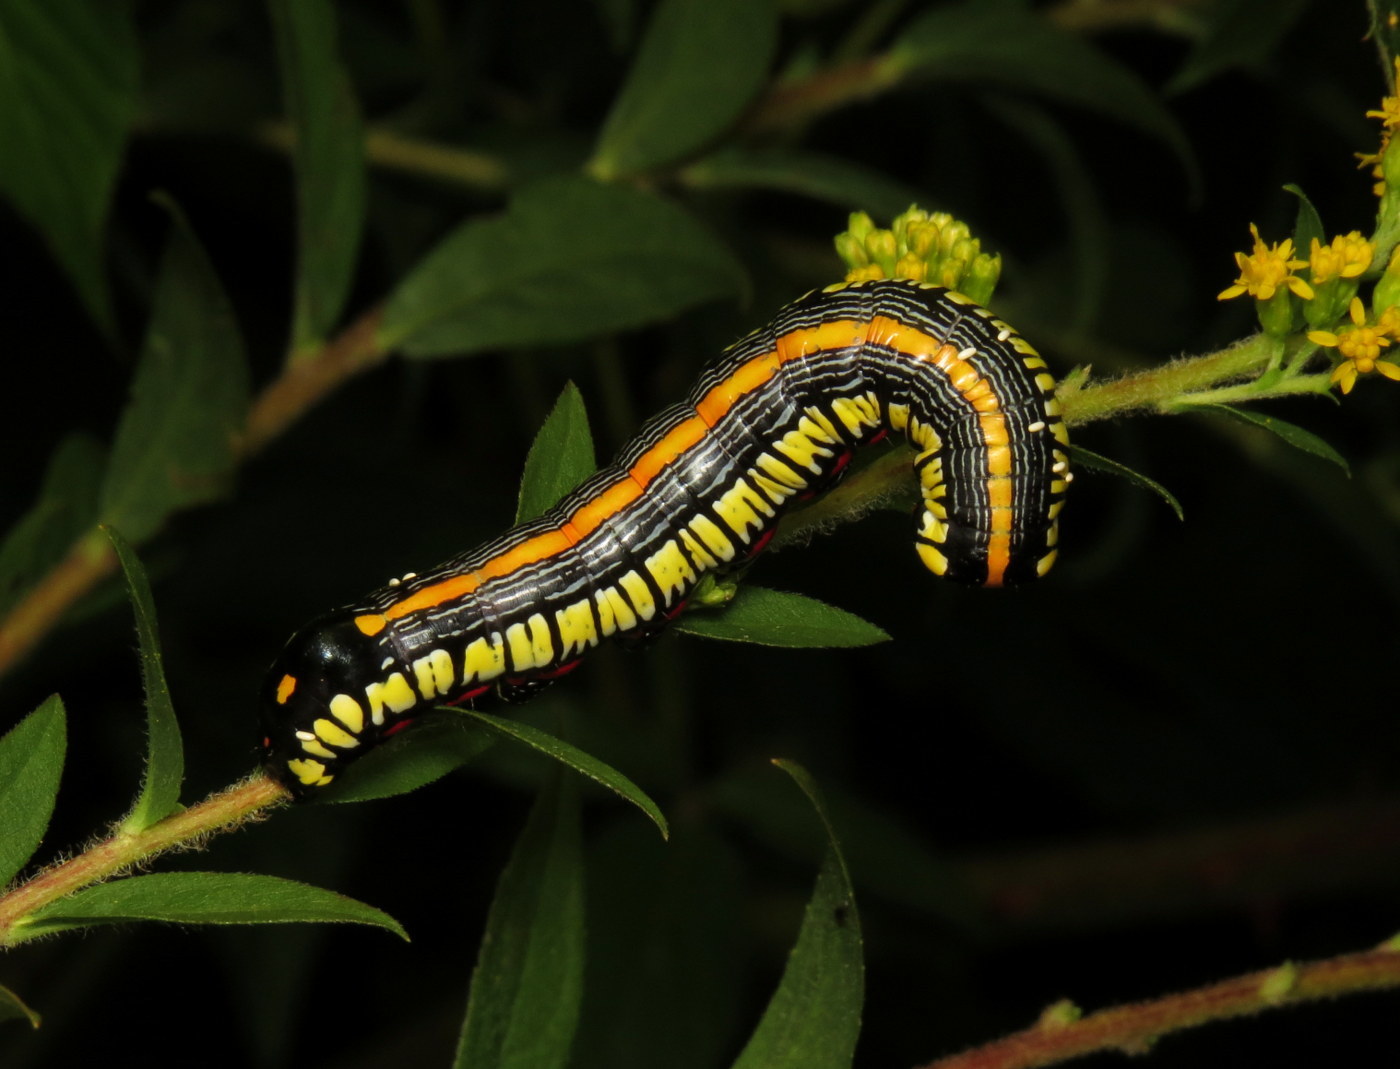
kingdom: Animalia
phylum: Arthropoda
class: Insecta
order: Lepidoptera
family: Noctuidae
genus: Cucullia
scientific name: Cucullia convexipennis
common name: Brown-hooded owlet
